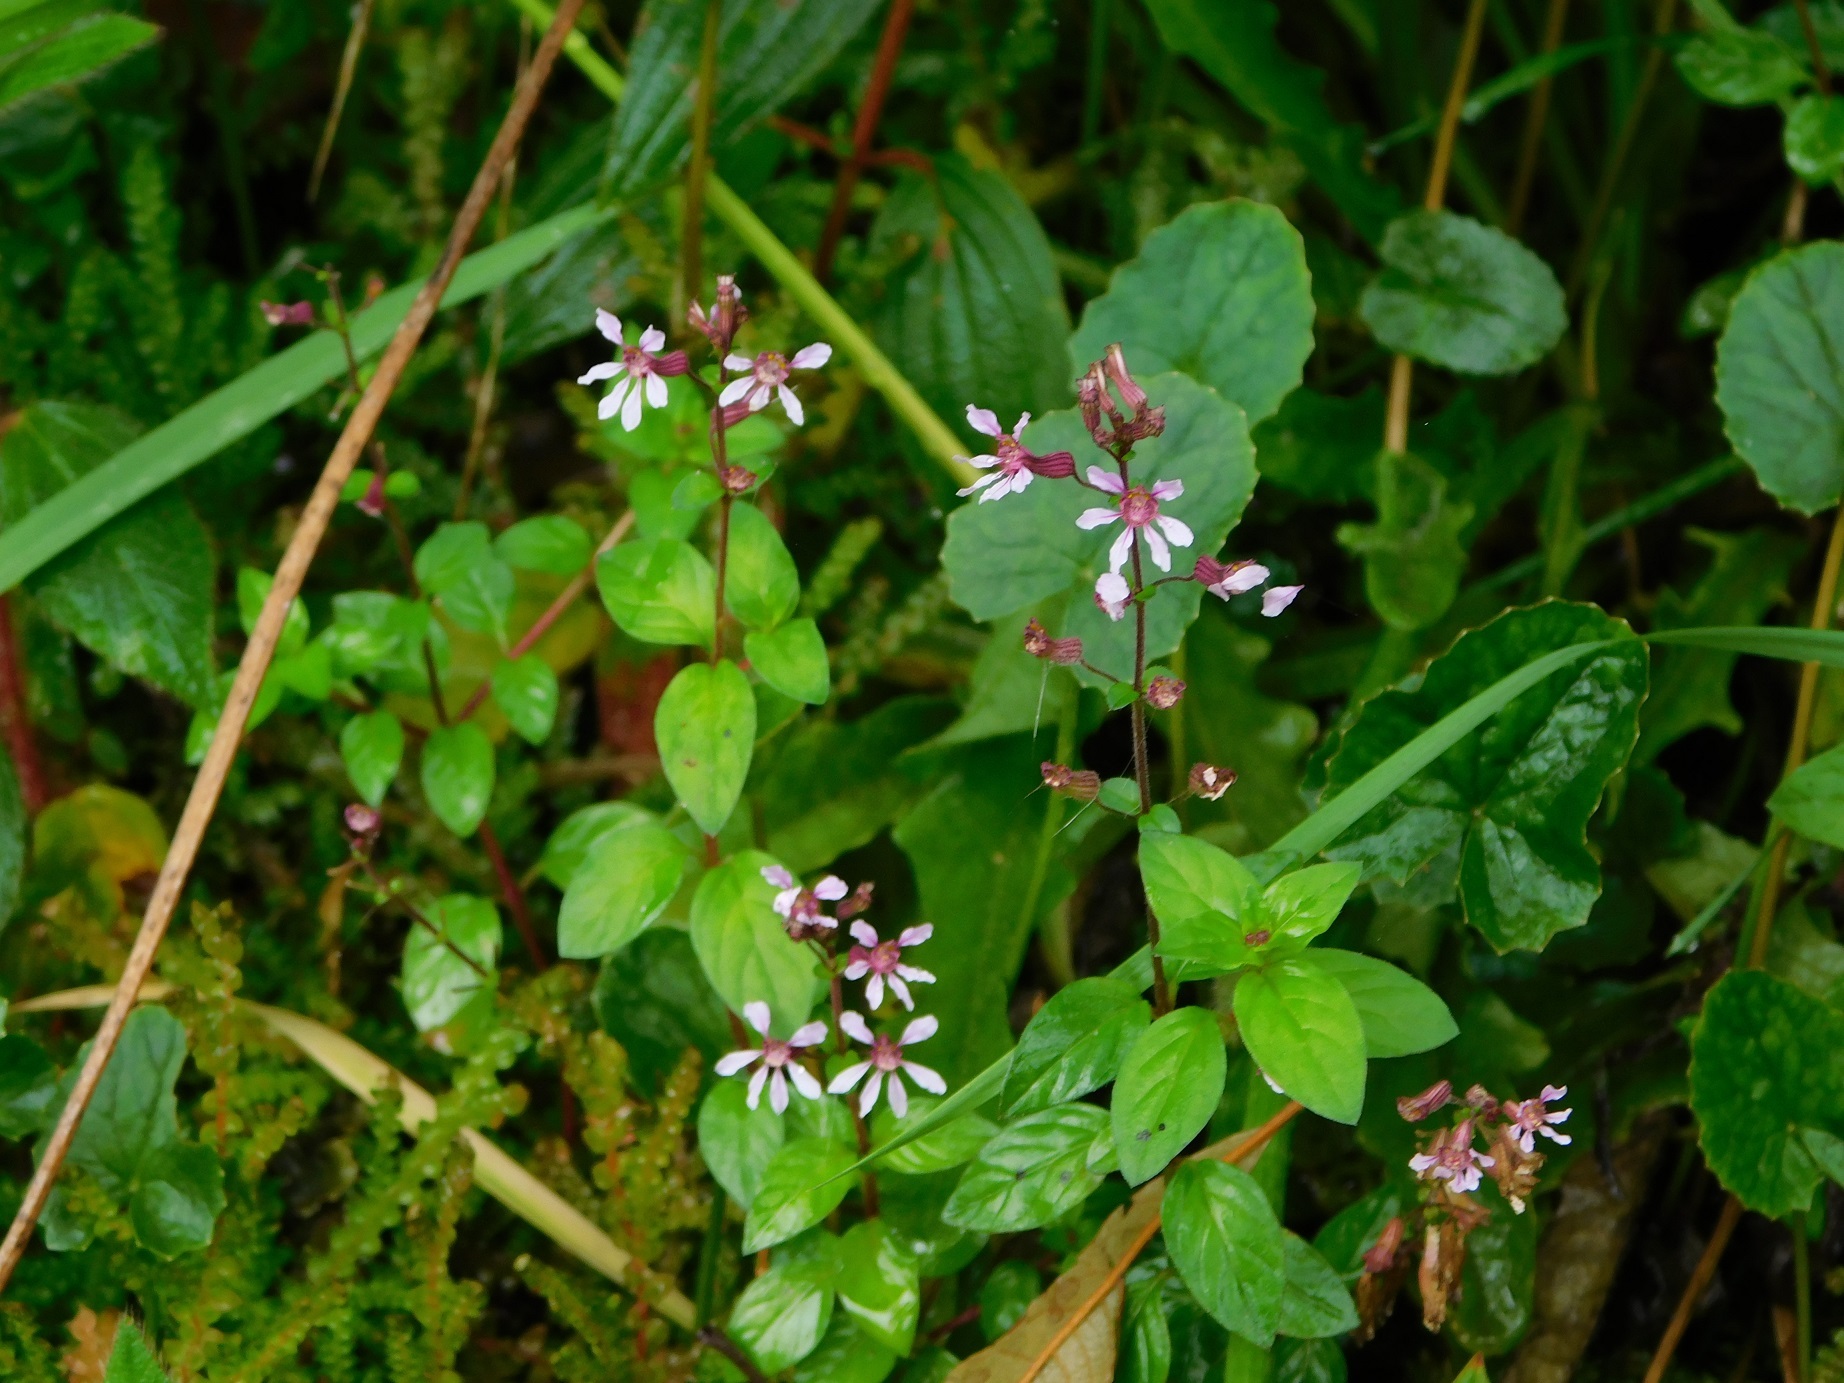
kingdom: Plantae
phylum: Tracheophyta
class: Magnoliopsida
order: Myrtales
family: Lythraceae
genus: Cuphea
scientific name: Cuphea racemosa
